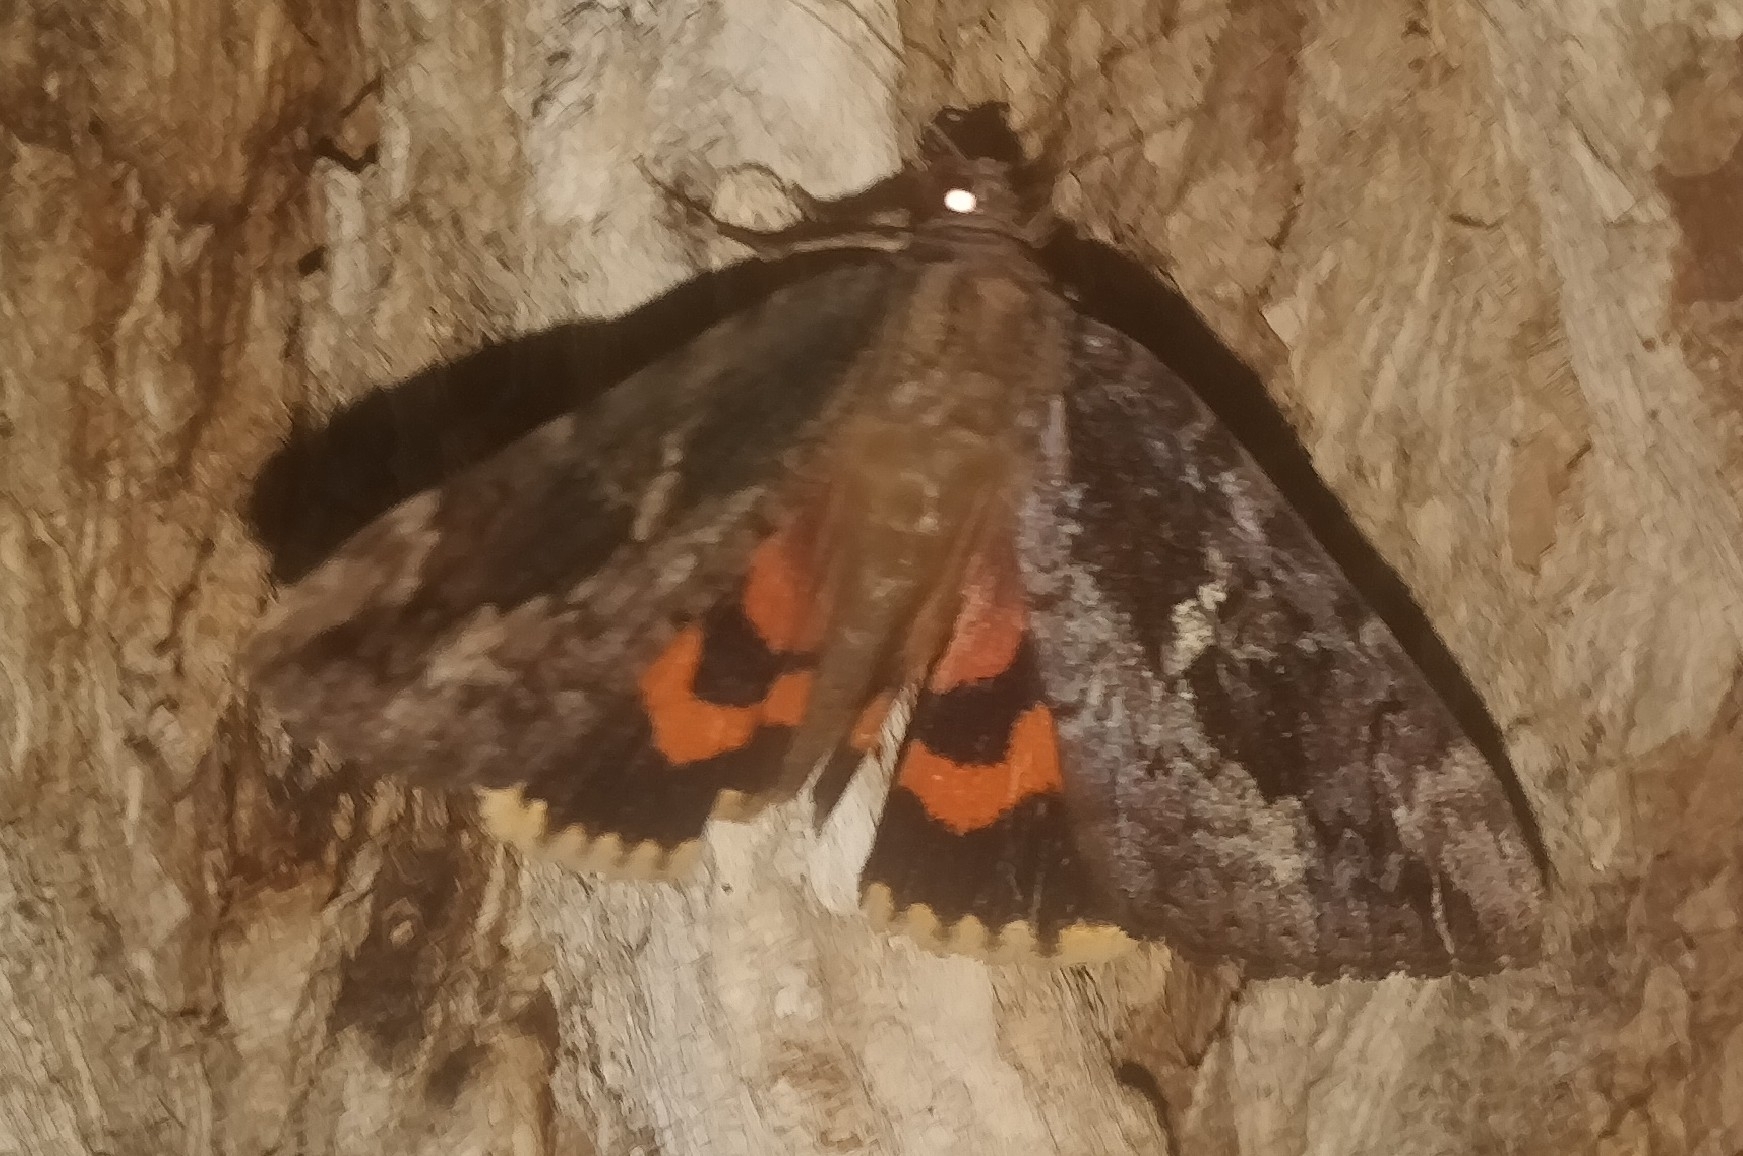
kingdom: Animalia
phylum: Arthropoda
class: Insecta
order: Lepidoptera
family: Erebidae
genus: Catocala
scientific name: Catocala innubens
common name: Betrothed underwing
